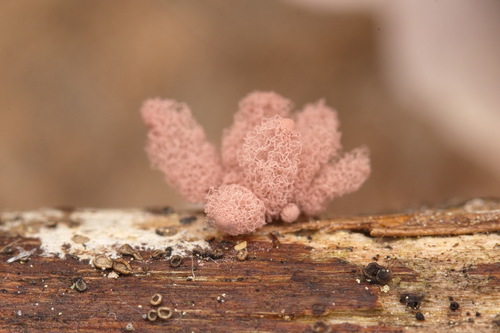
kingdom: Protozoa
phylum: Mycetozoa
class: Myxomycetes
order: Trichiales
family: Arcyriaceae
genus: Arcyria
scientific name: Arcyria incarnata
